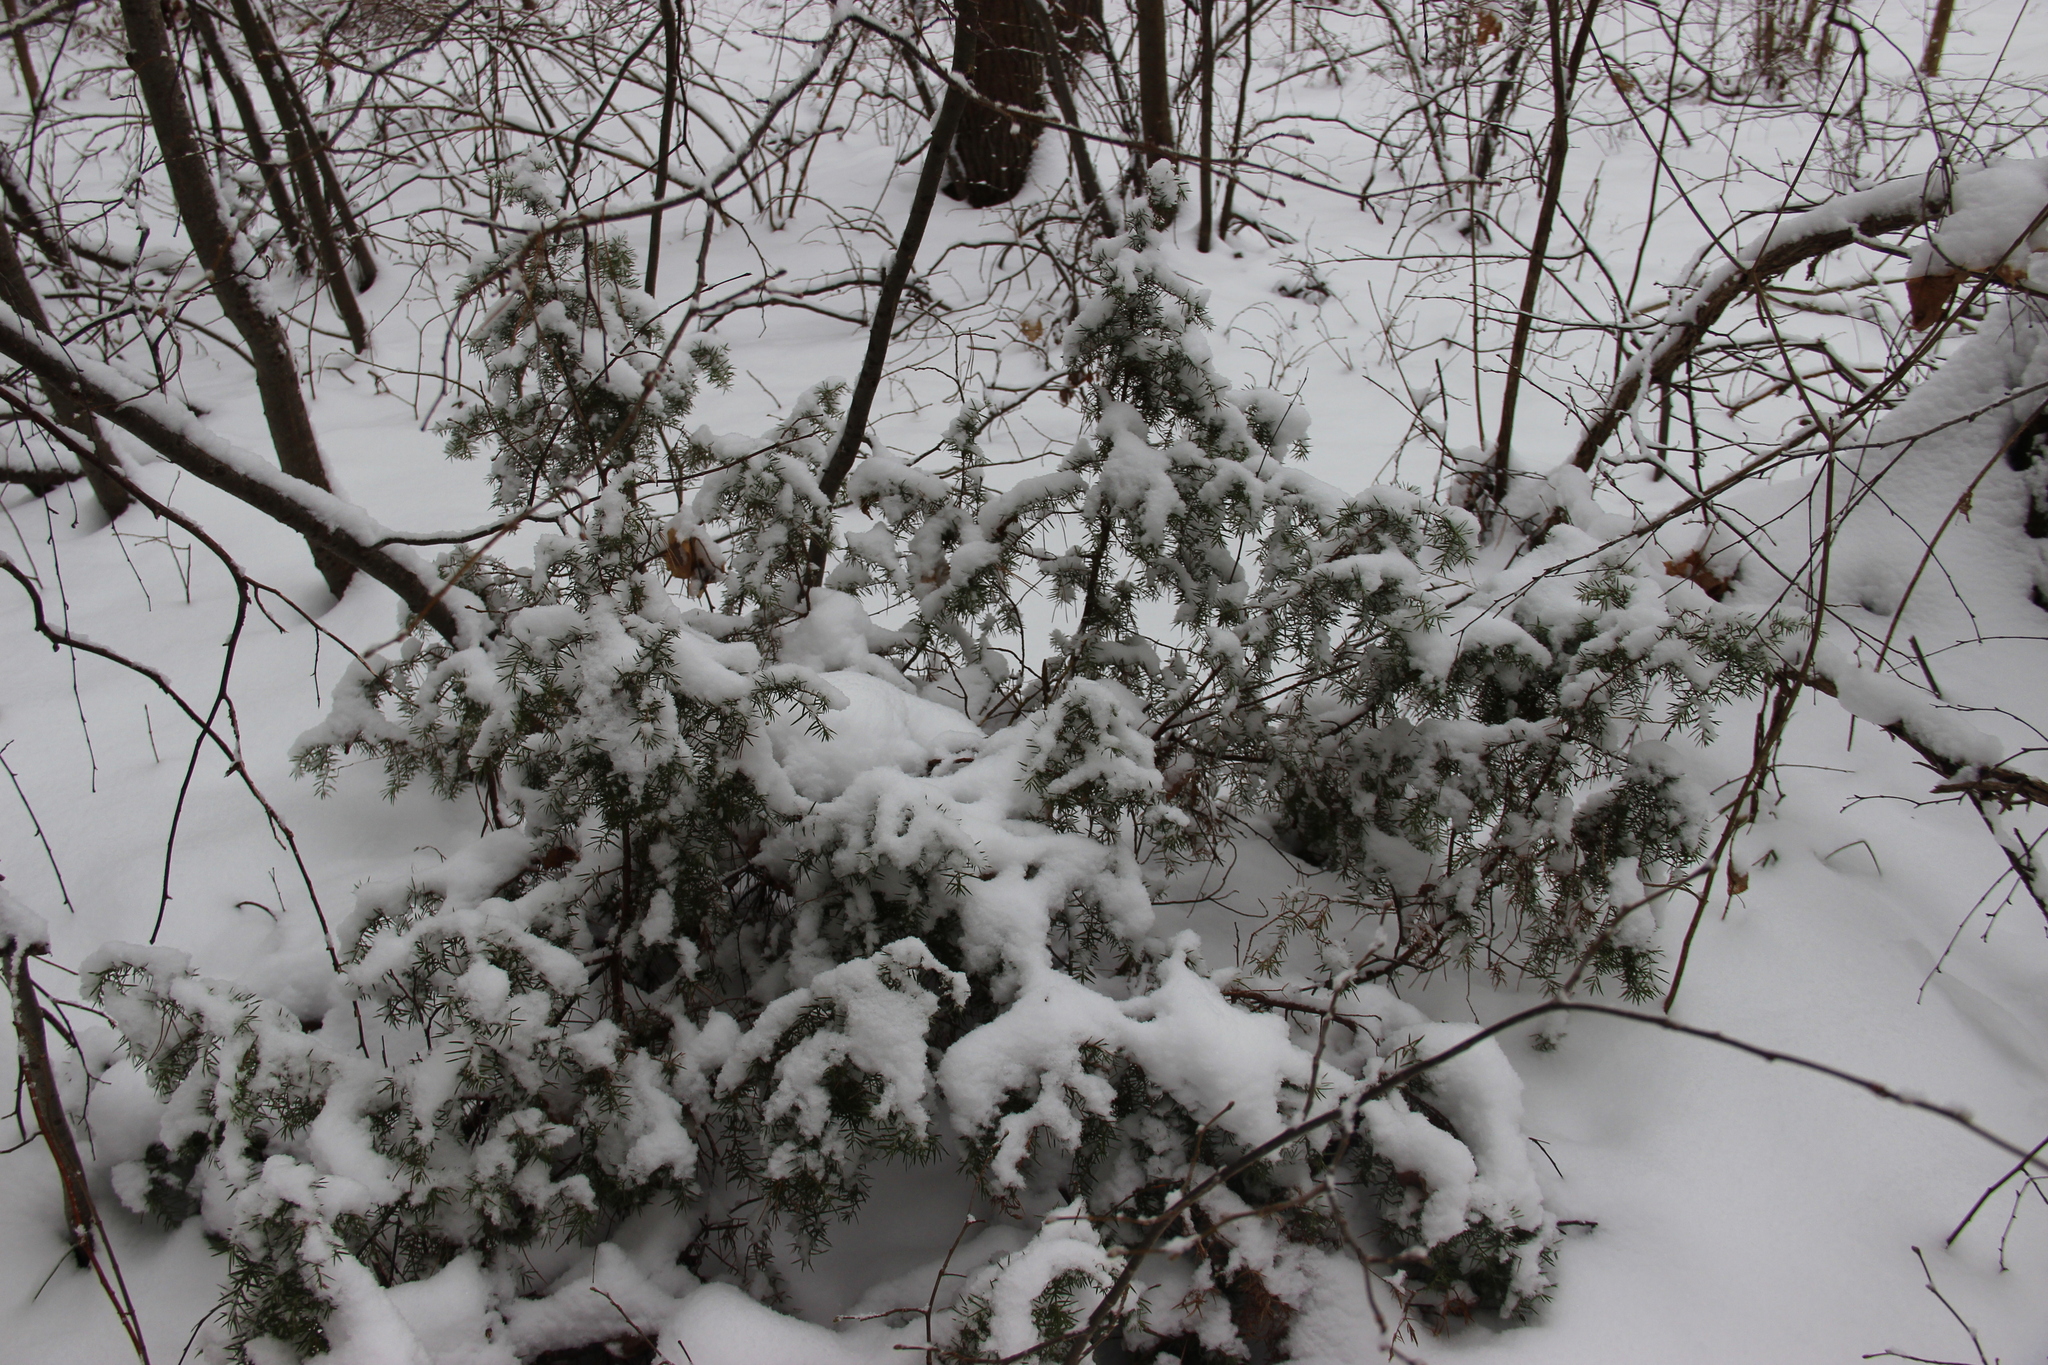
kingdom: Plantae
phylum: Tracheophyta
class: Pinopsida
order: Pinales
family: Cupressaceae
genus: Juniperus
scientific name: Juniperus communis
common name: Common juniper
